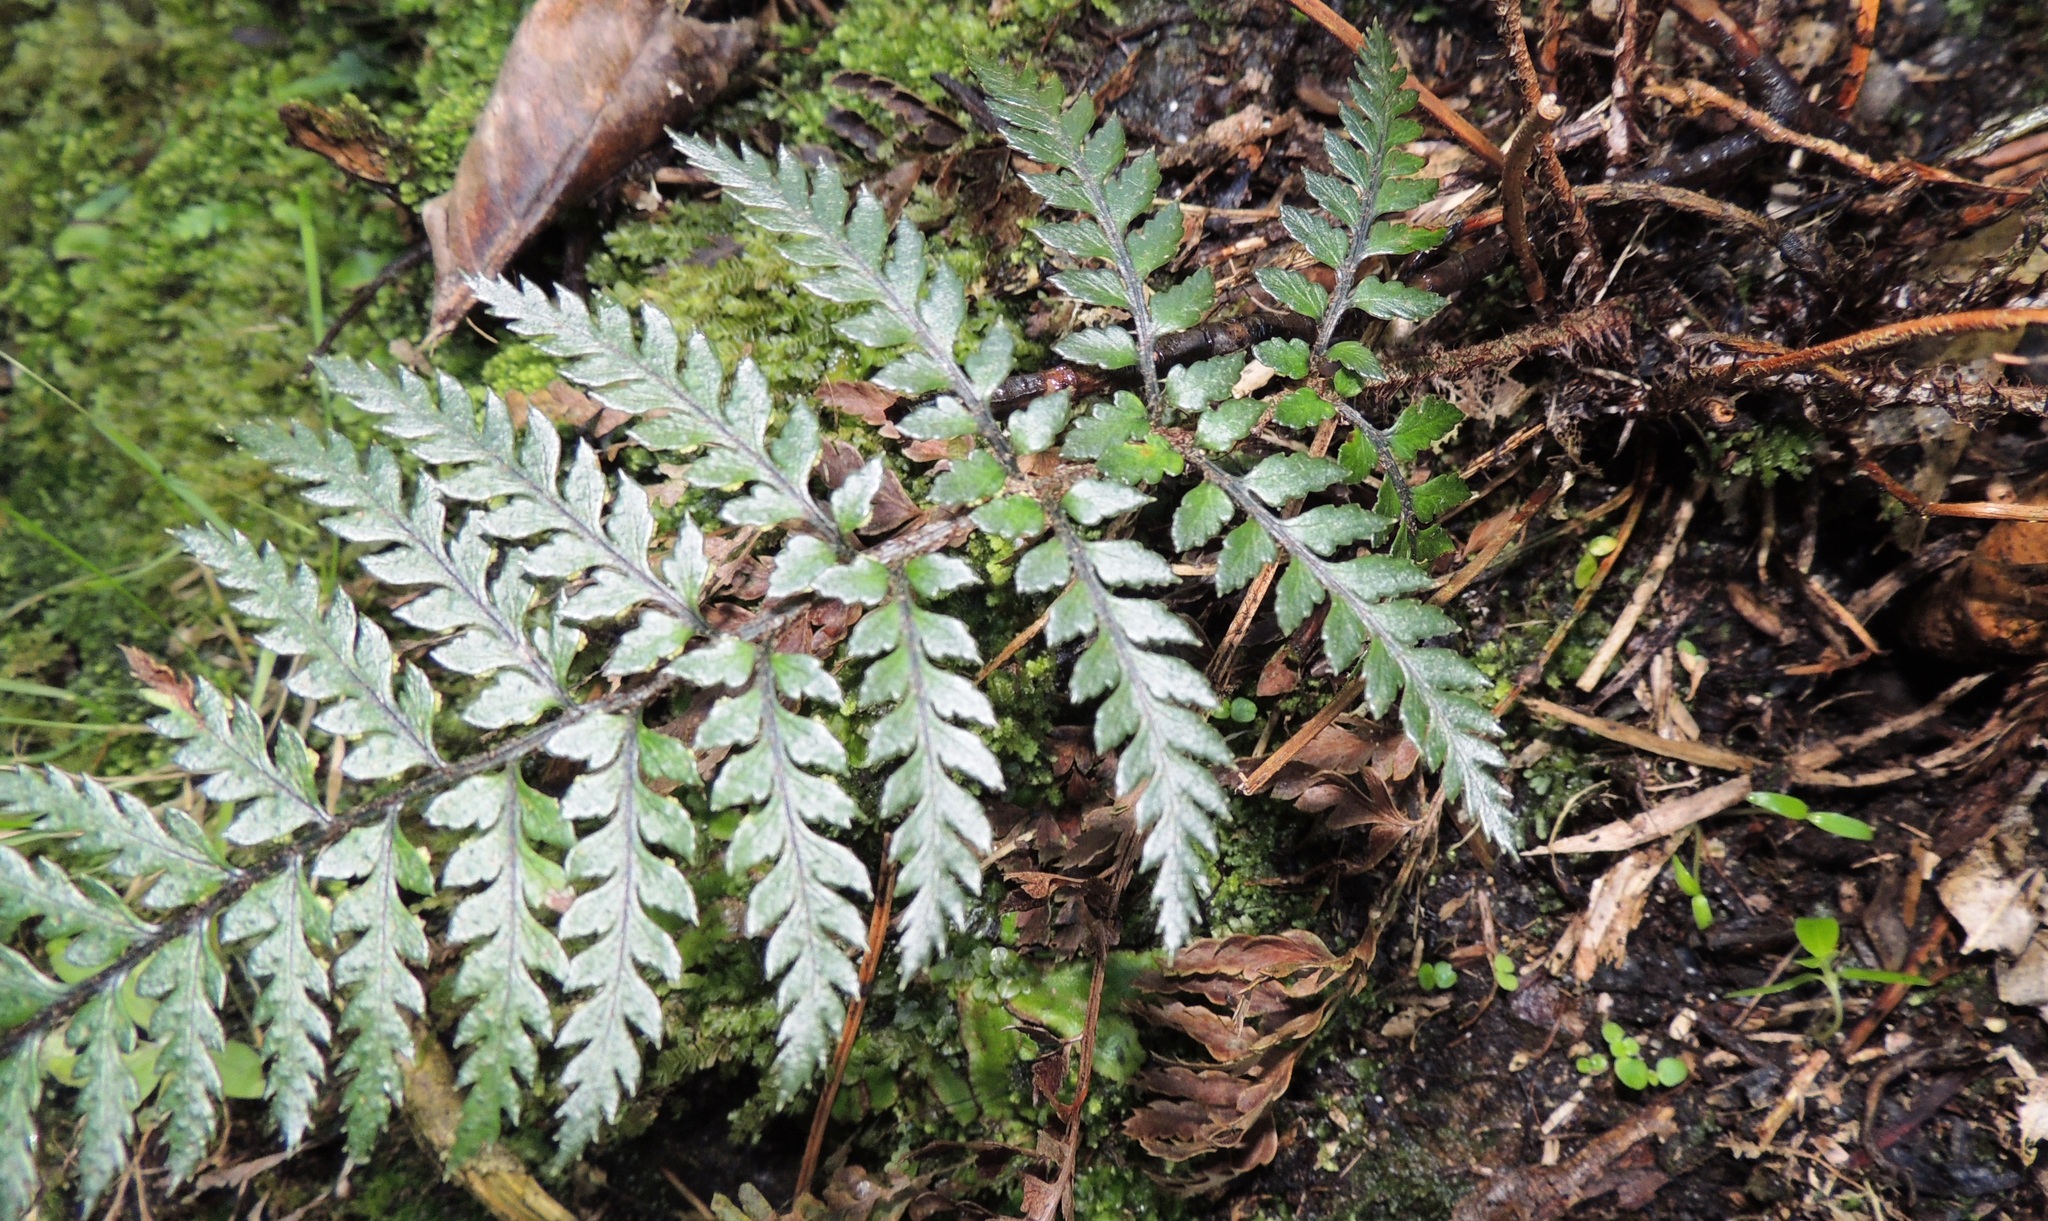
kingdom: Plantae
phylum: Tracheophyta
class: Polypodiopsida
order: Polypodiales
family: Dryopteridaceae
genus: Polystichum
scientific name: Polystichum neozelandicum
